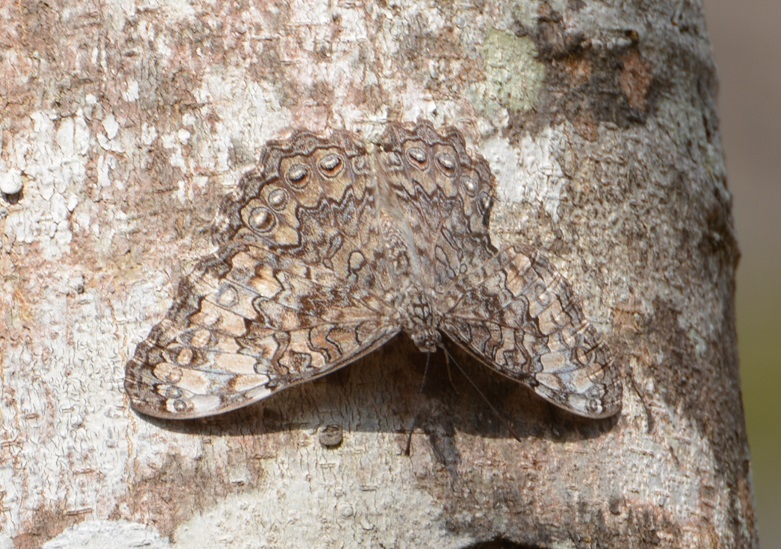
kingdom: Animalia
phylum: Arthropoda
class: Insecta
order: Lepidoptera
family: Nymphalidae
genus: Hamadryas
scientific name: Hamadryas glauconome
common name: Glaucous cracker
